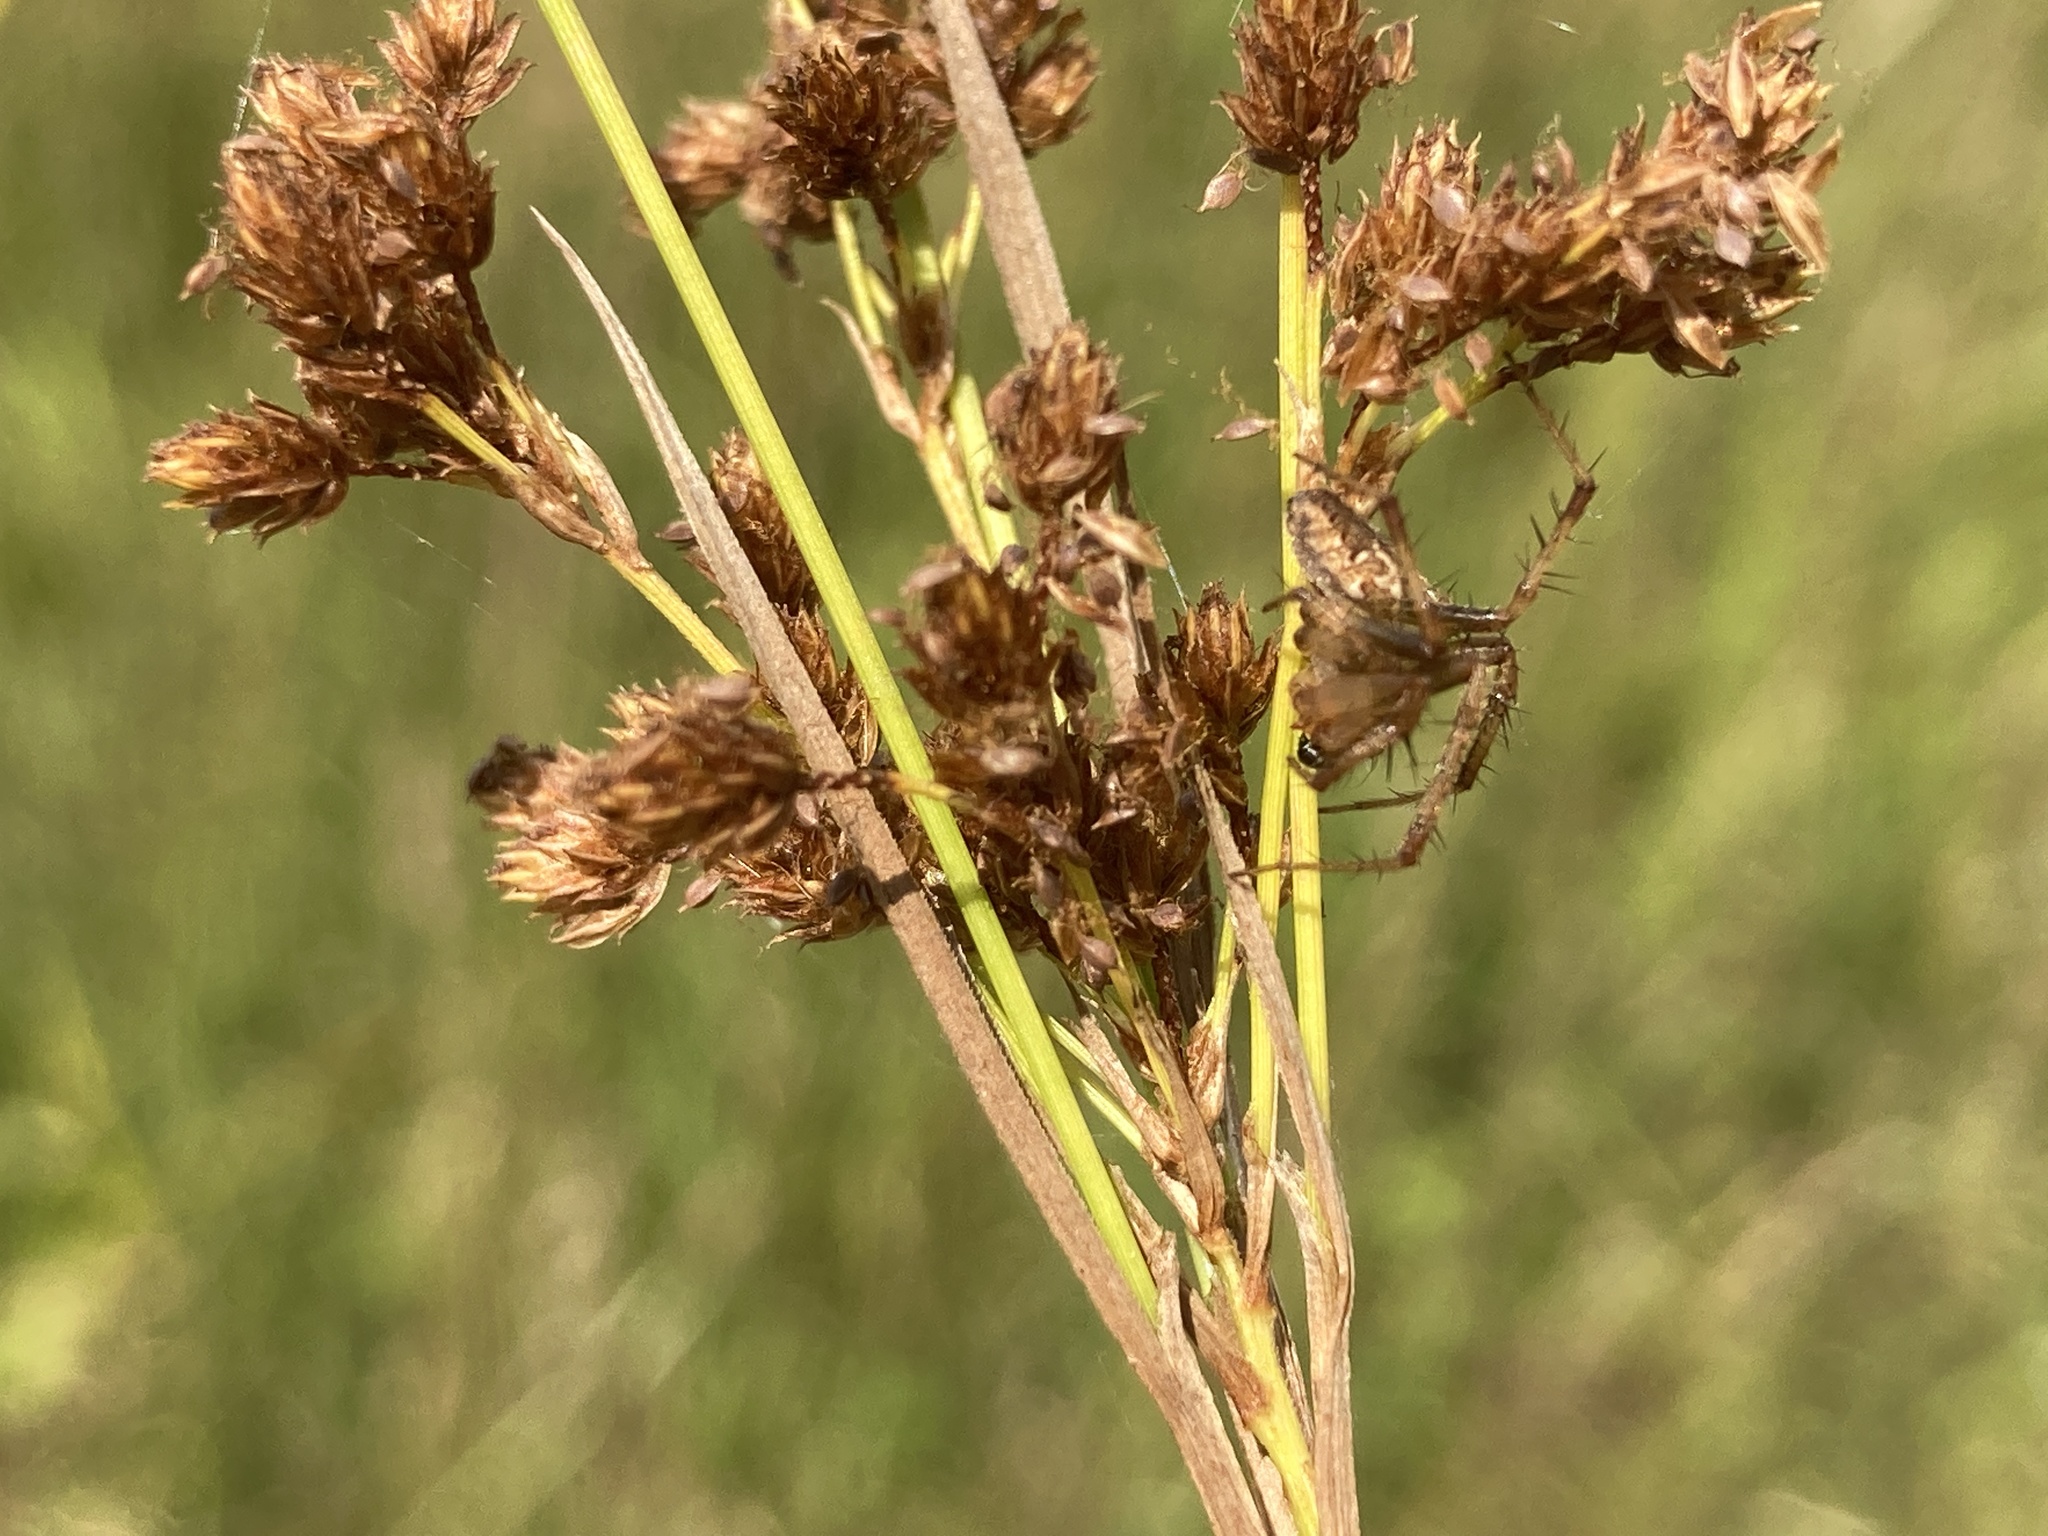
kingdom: Animalia
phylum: Arthropoda
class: Arachnida
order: Araneae
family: Araneidae
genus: Neoscona
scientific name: Neoscona arabesca
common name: Orb weavers
